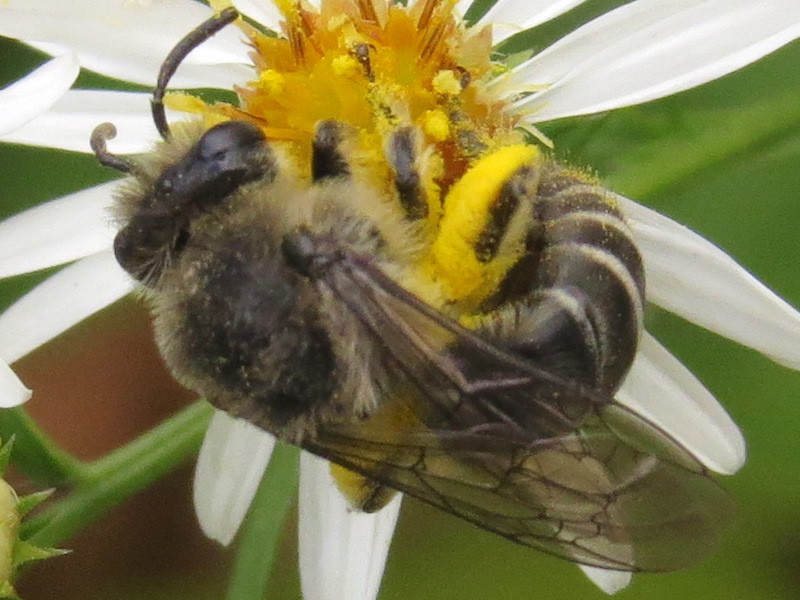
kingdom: Animalia
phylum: Arthropoda
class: Insecta
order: Hymenoptera
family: Colletidae
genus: Colletes
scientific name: Colletes compactus
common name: Aster cellophane bee
